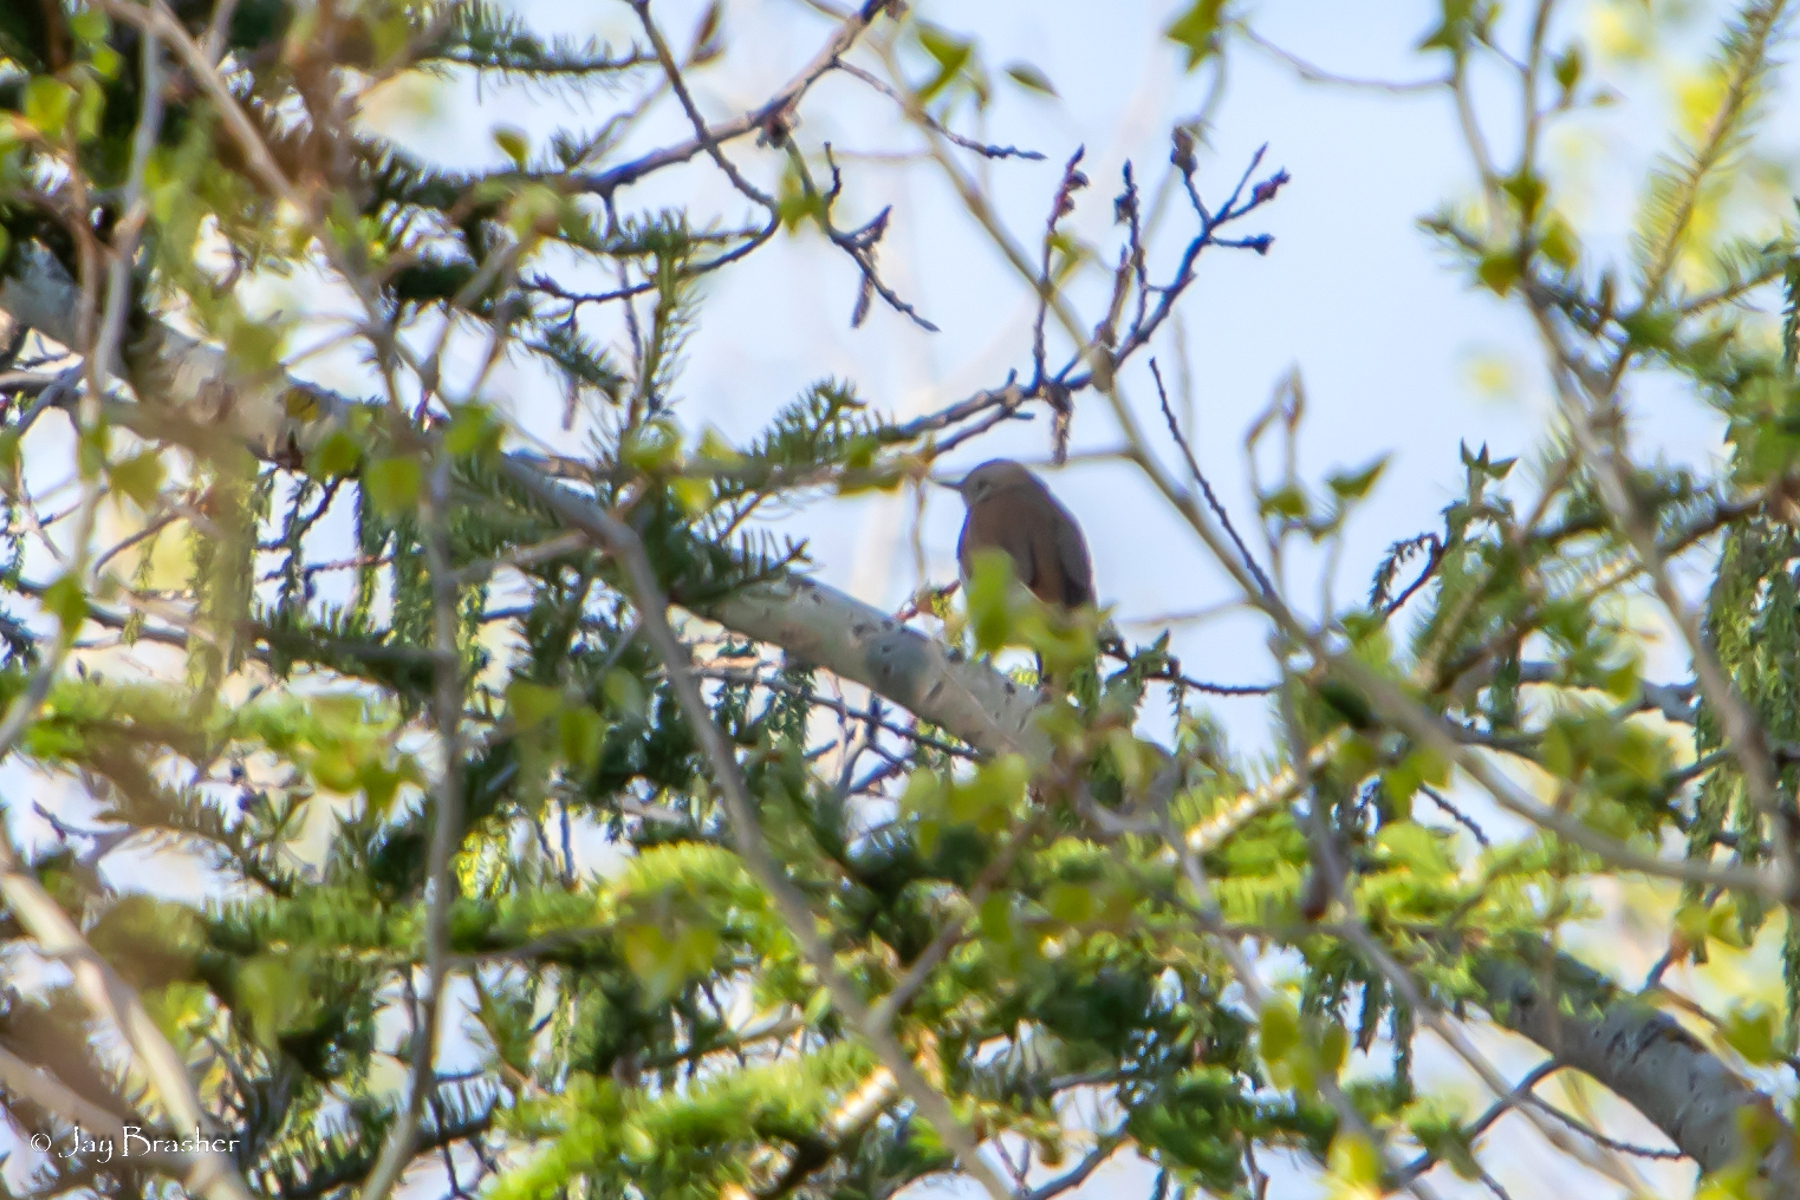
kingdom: Animalia
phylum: Chordata
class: Aves
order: Passeriformes
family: Turdidae
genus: Catharus
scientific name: Catharus guttatus
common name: Hermit thrush
